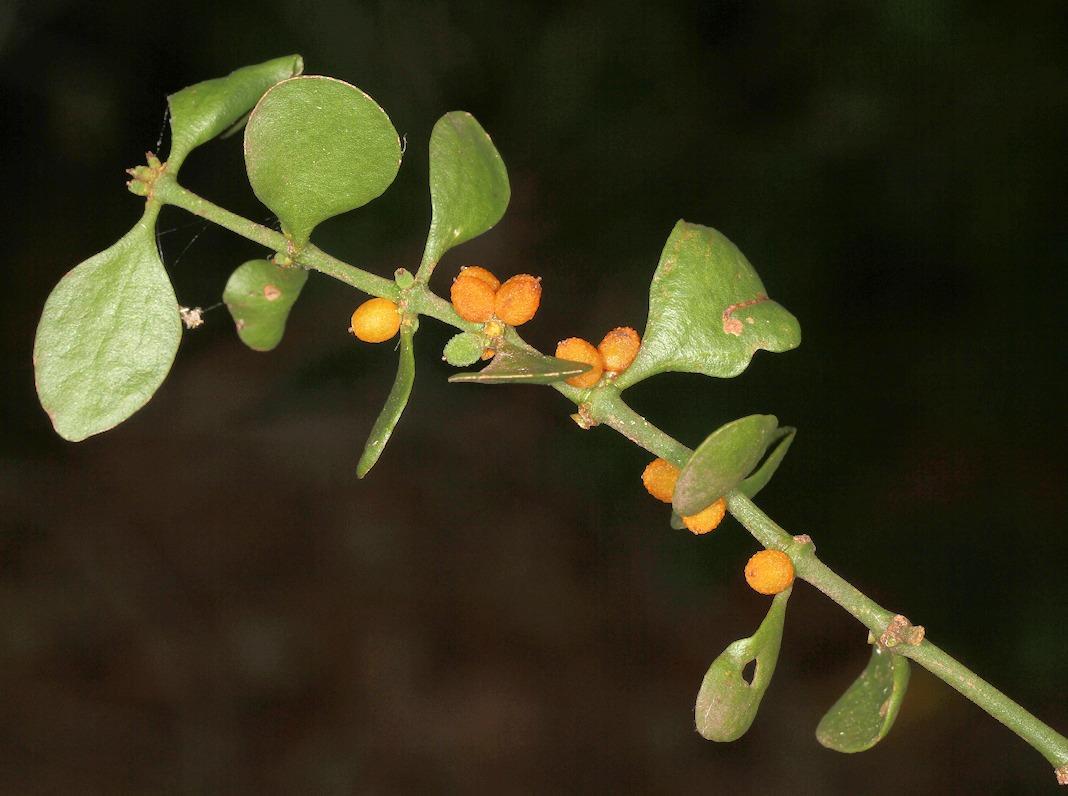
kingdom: Plantae
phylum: Tracheophyta
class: Magnoliopsida
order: Santalales
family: Viscaceae
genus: Viscum
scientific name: Viscum rotundifolium
